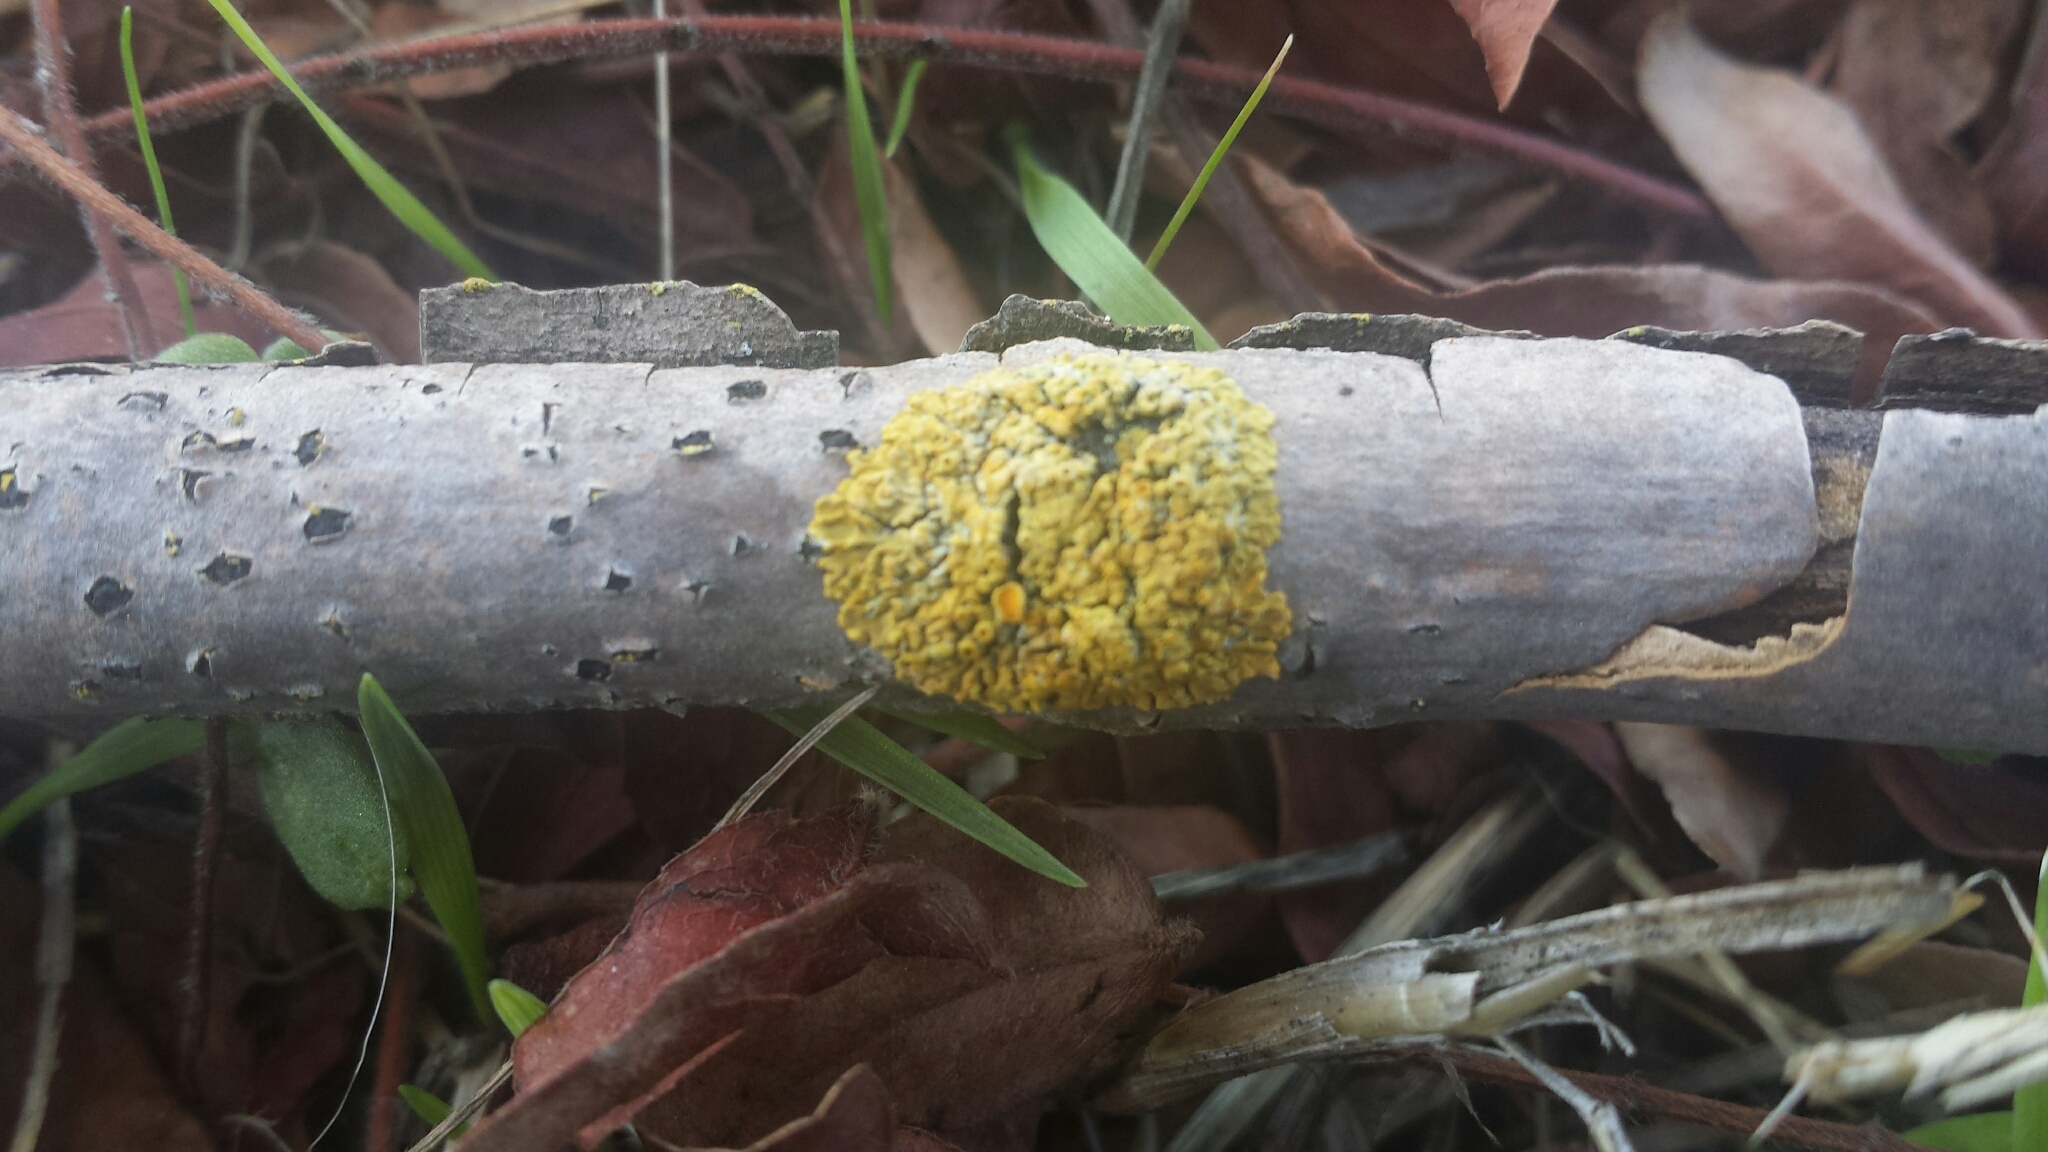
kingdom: Fungi
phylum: Ascomycota
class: Lecanoromycetes
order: Teloschistales
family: Teloschistaceae
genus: Xanthoria
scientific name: Xanthoria parietina
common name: Common orange lichen
